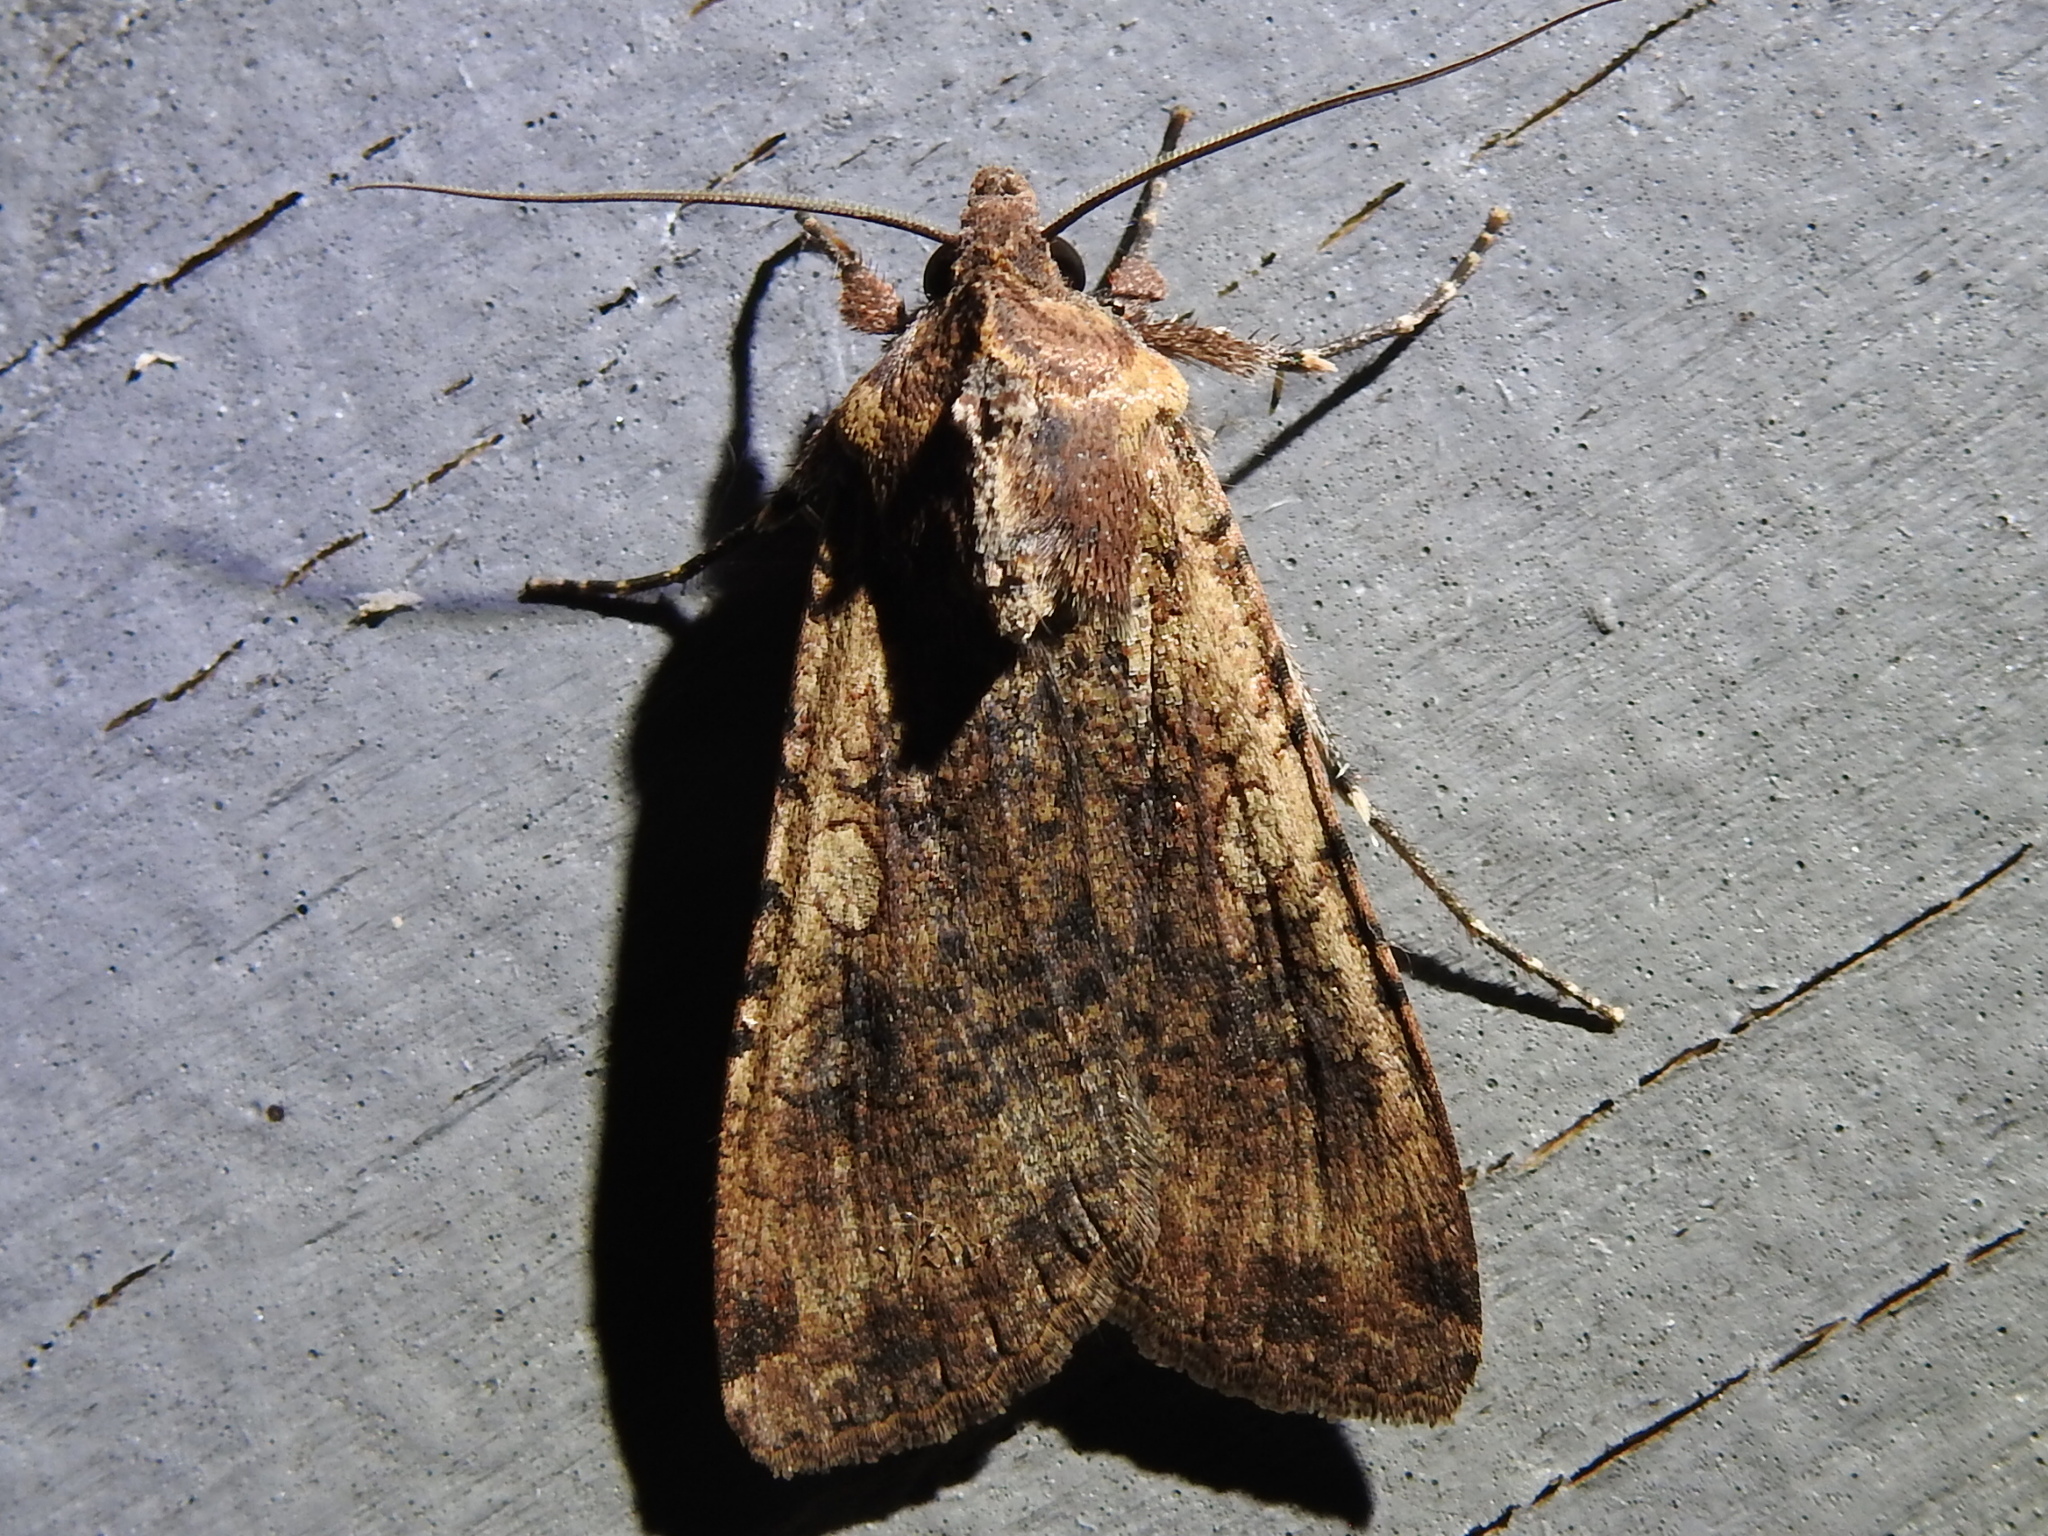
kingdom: Animalia
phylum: Arthropoda
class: Insecta
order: Lepidoptera
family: Noctuidae
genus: Peridroma
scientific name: Peridroma saucia
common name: Pearly underwing
